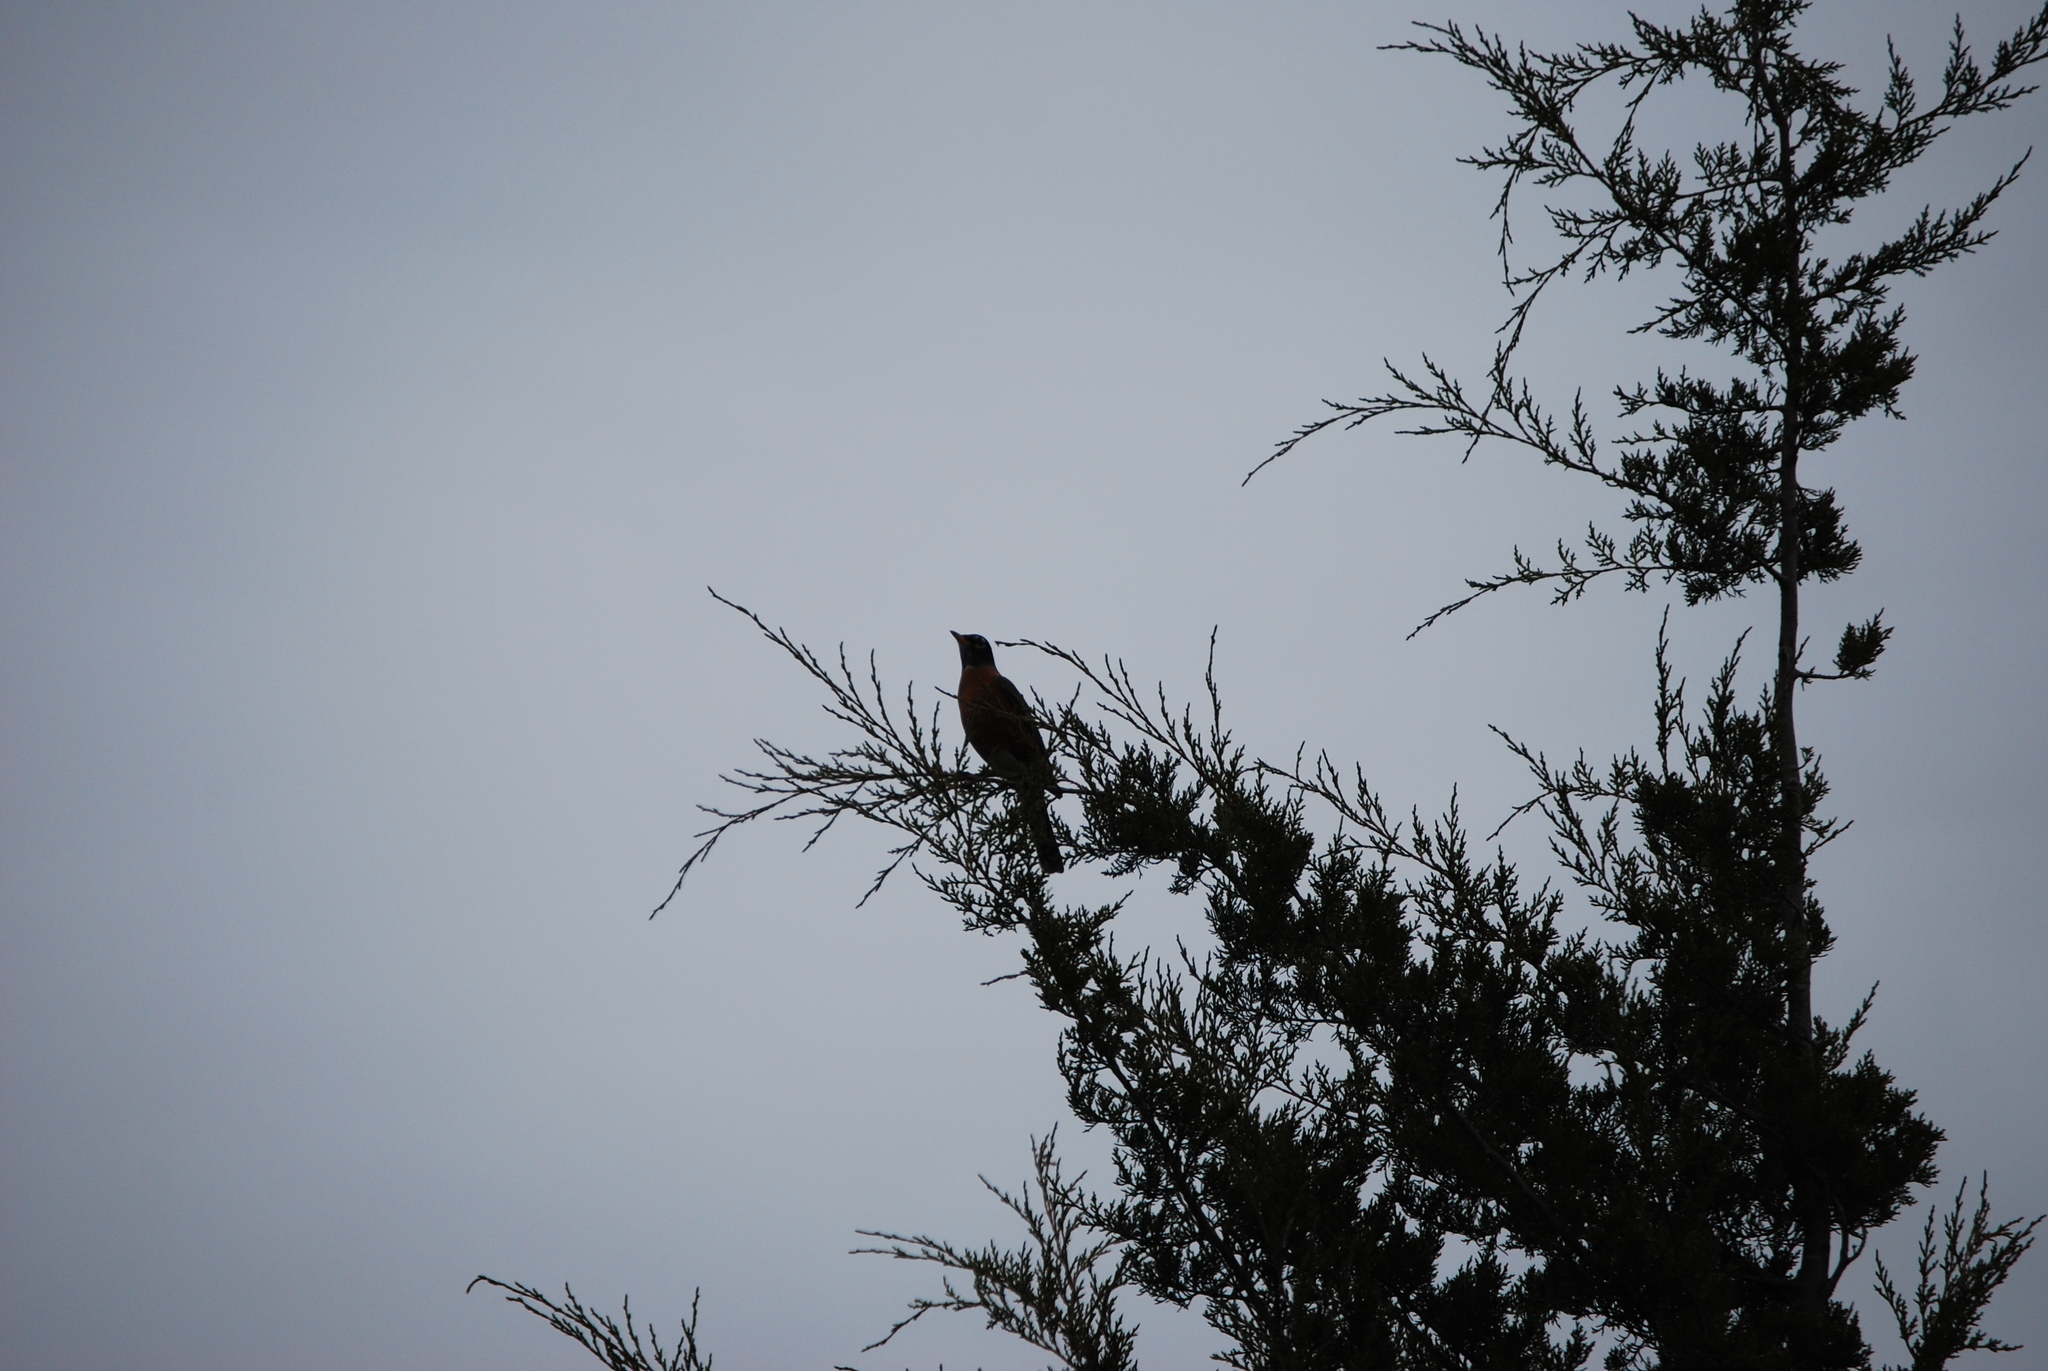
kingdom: Animalia
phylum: Chordata
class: Aves
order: Passeriformes
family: Turdidae
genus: Turdus
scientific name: Turdus migratorius
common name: American robin
